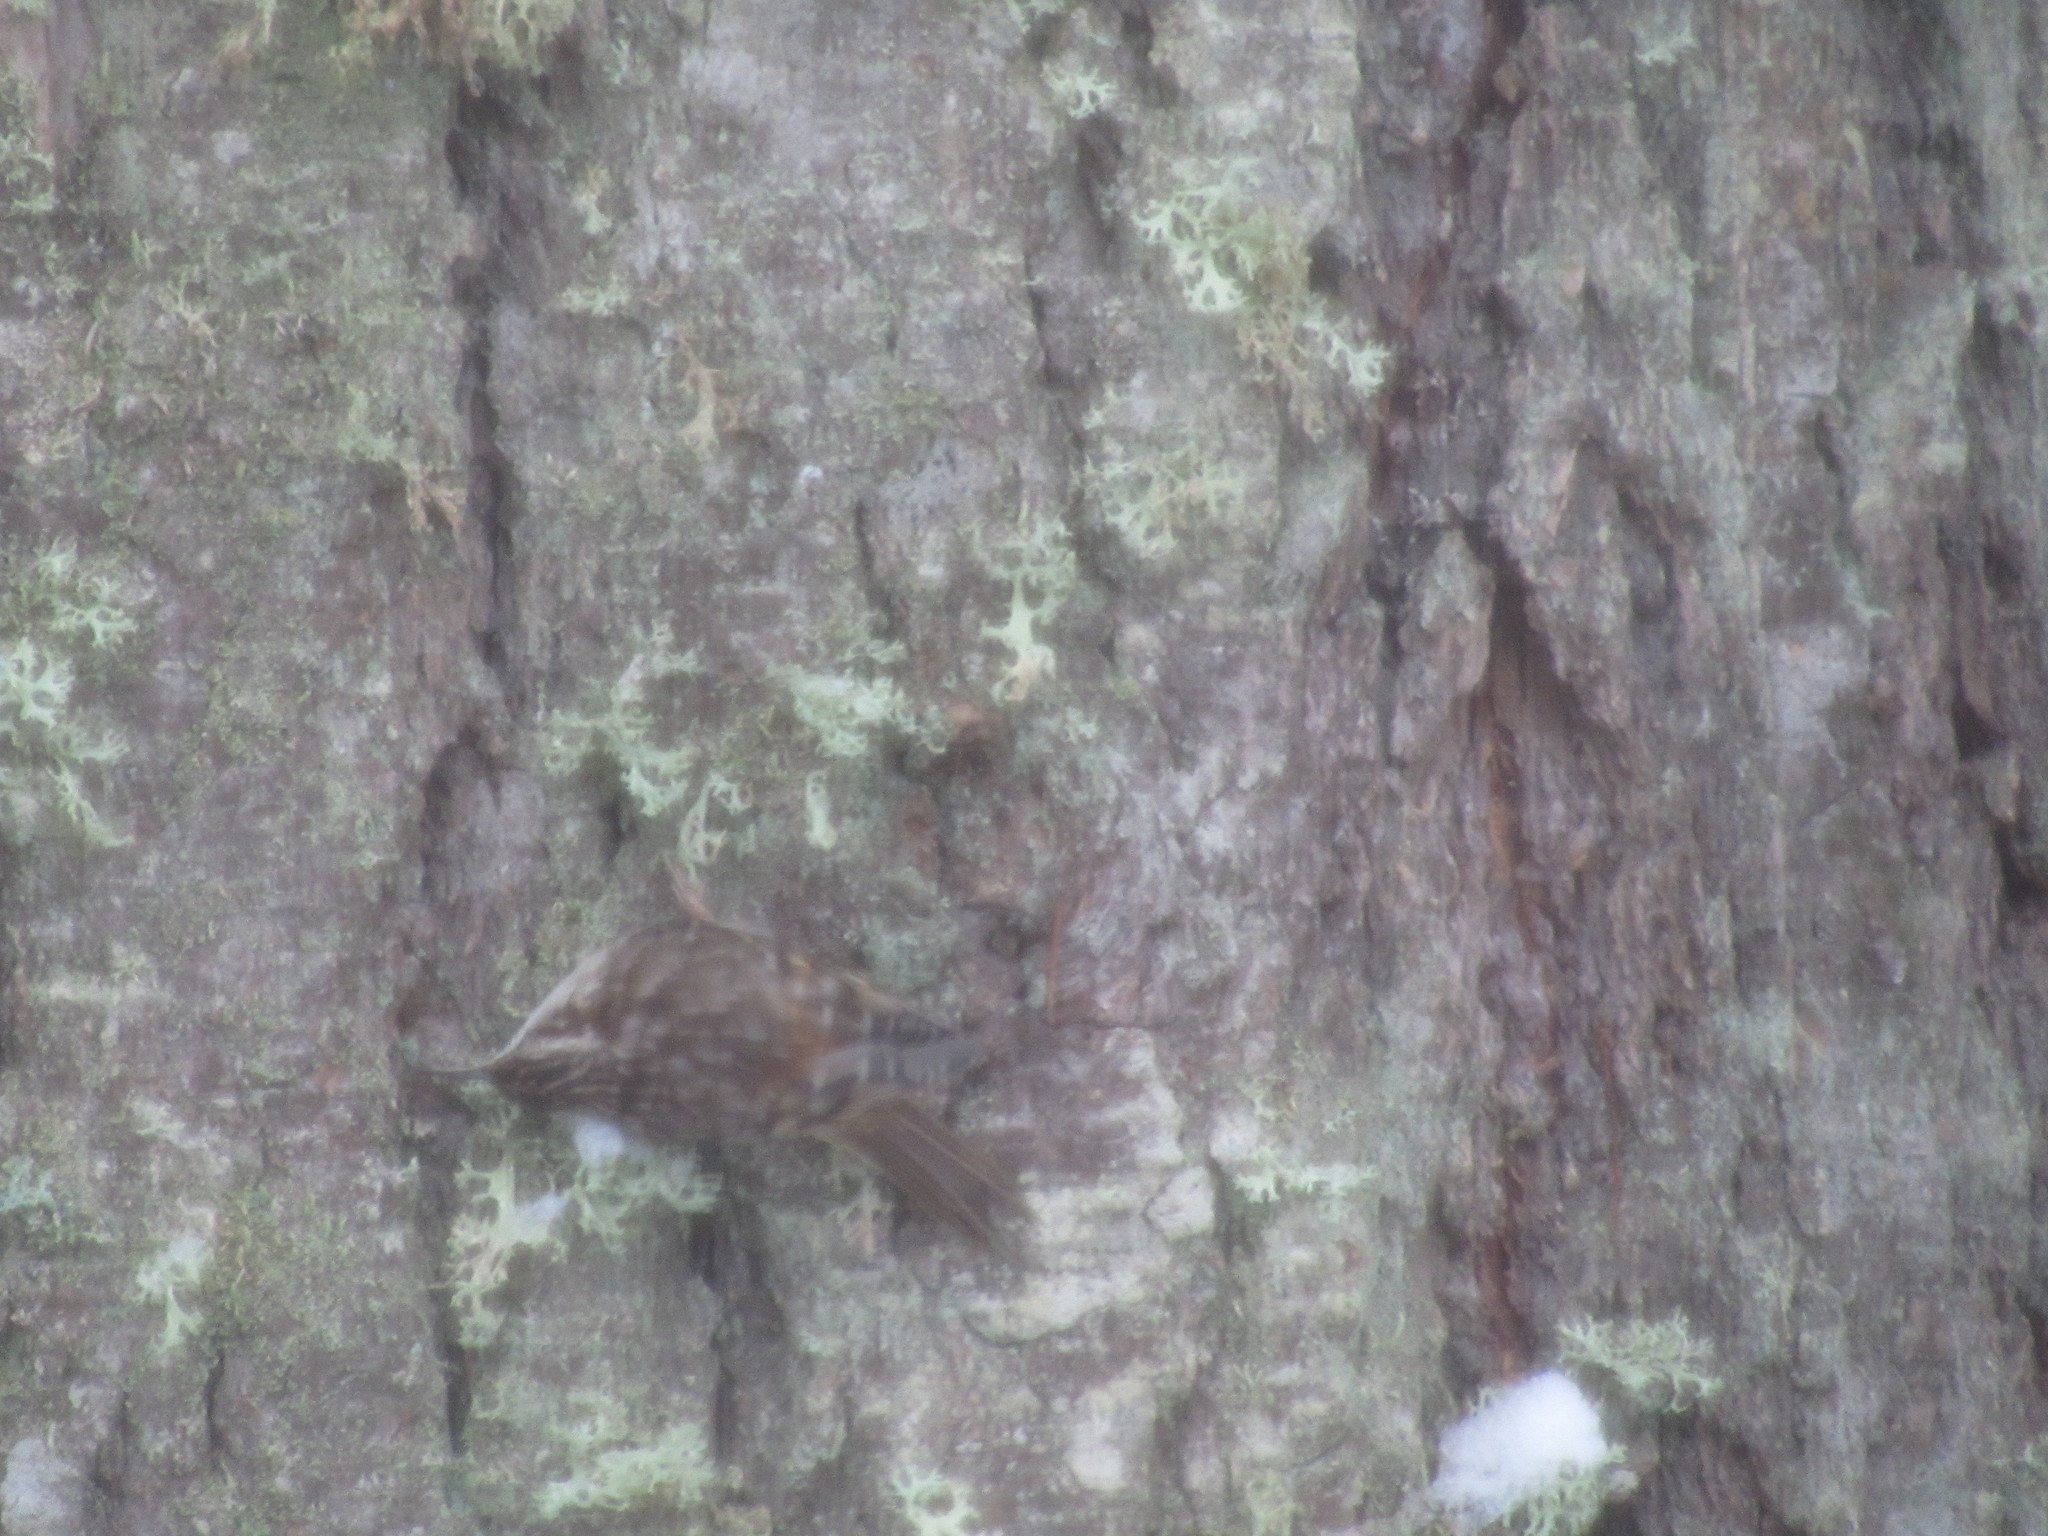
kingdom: Animalia
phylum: Chordata
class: Aves
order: Passeriformes
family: Certhiidae
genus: Certhia
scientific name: Certhia americana
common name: Brown creeper
